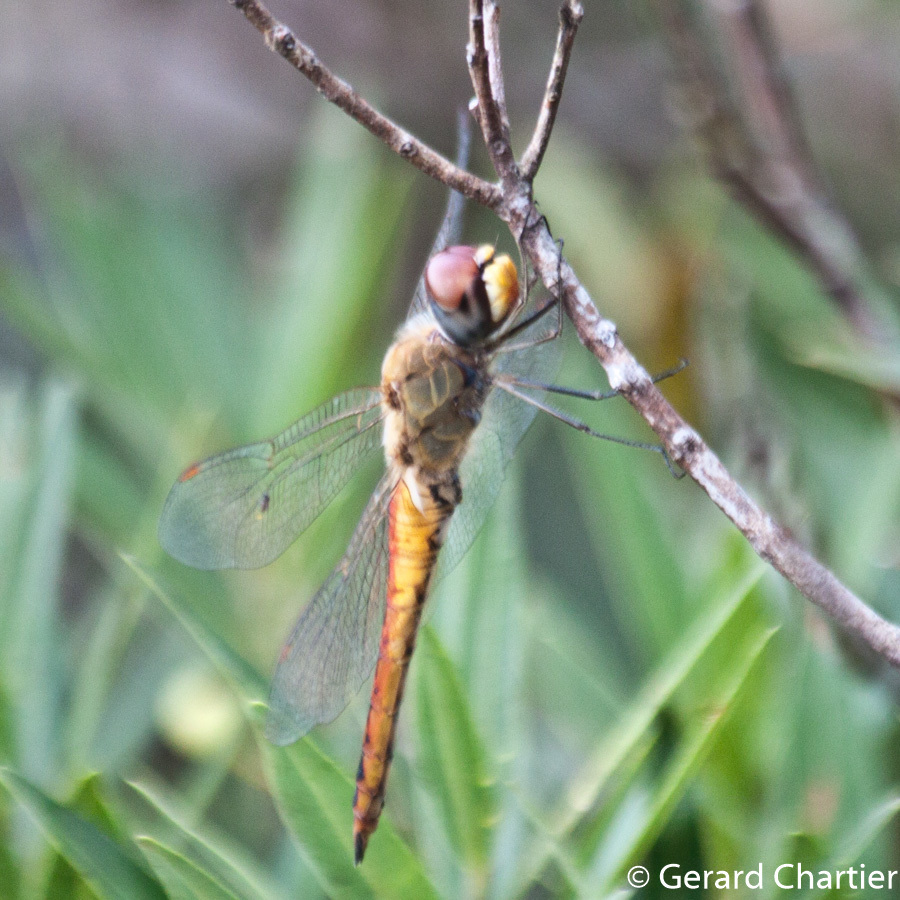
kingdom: Animalia
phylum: Arthropoda
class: Insecta
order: Odonata
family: Libellulidae
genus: Pantala
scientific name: Pantala flavescens
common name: Wandering glider
